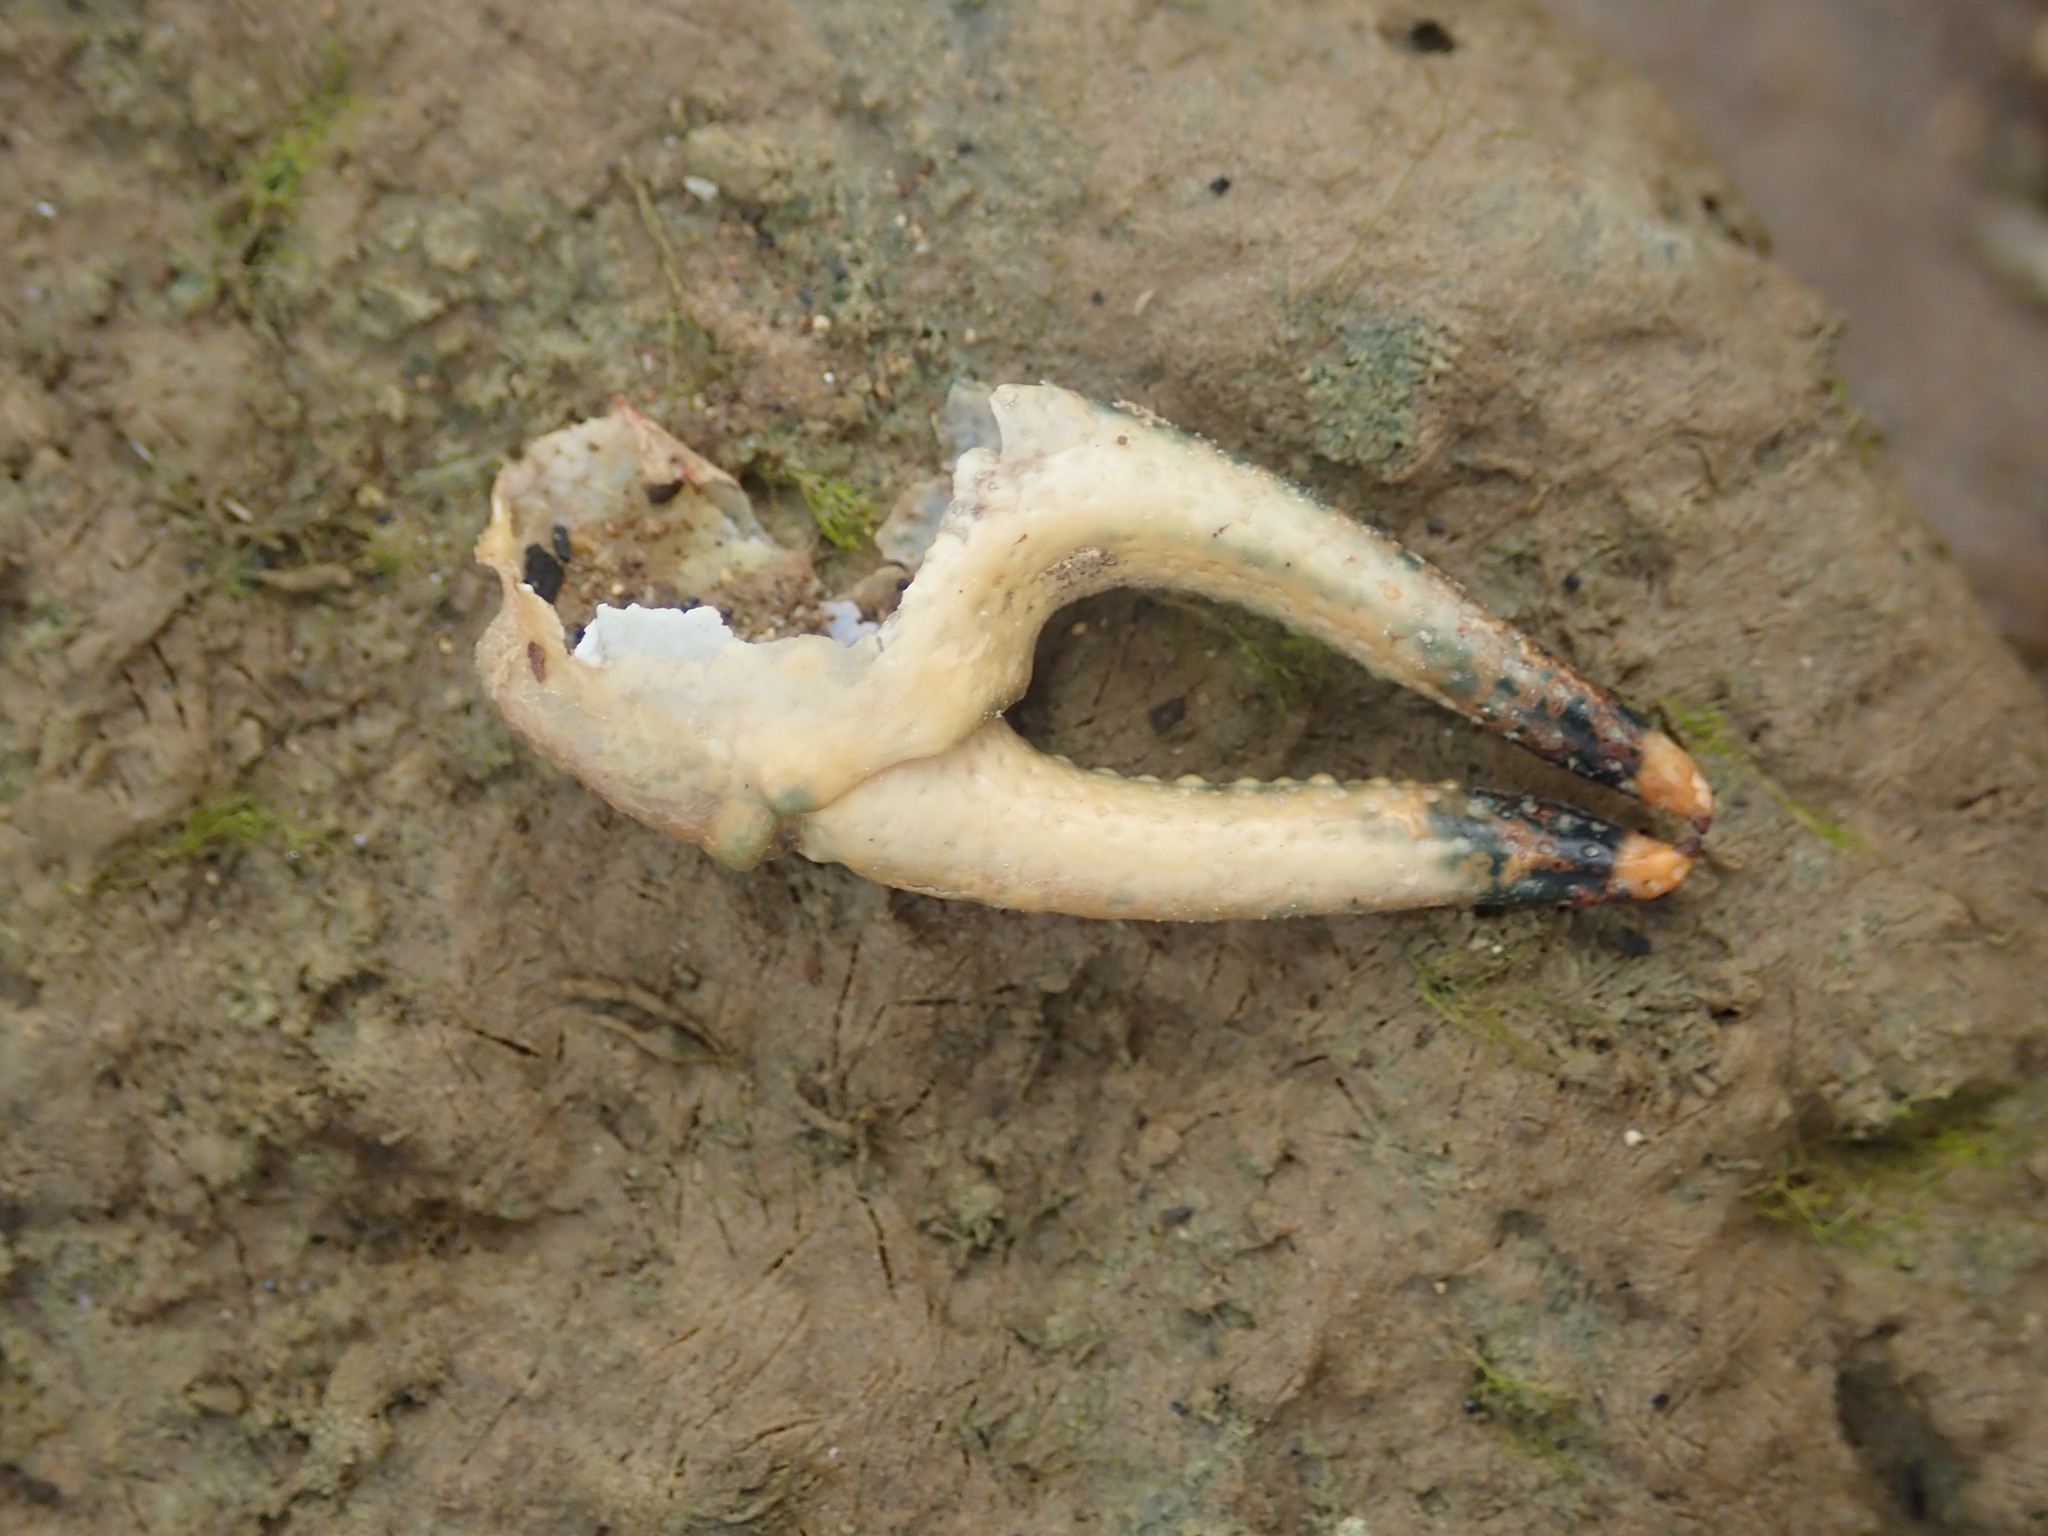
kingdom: Animalia
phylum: Arthropoda
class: Malacostraca
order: Decapoda
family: Cambaridae
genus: Faxonius
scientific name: Faxonius placidus
